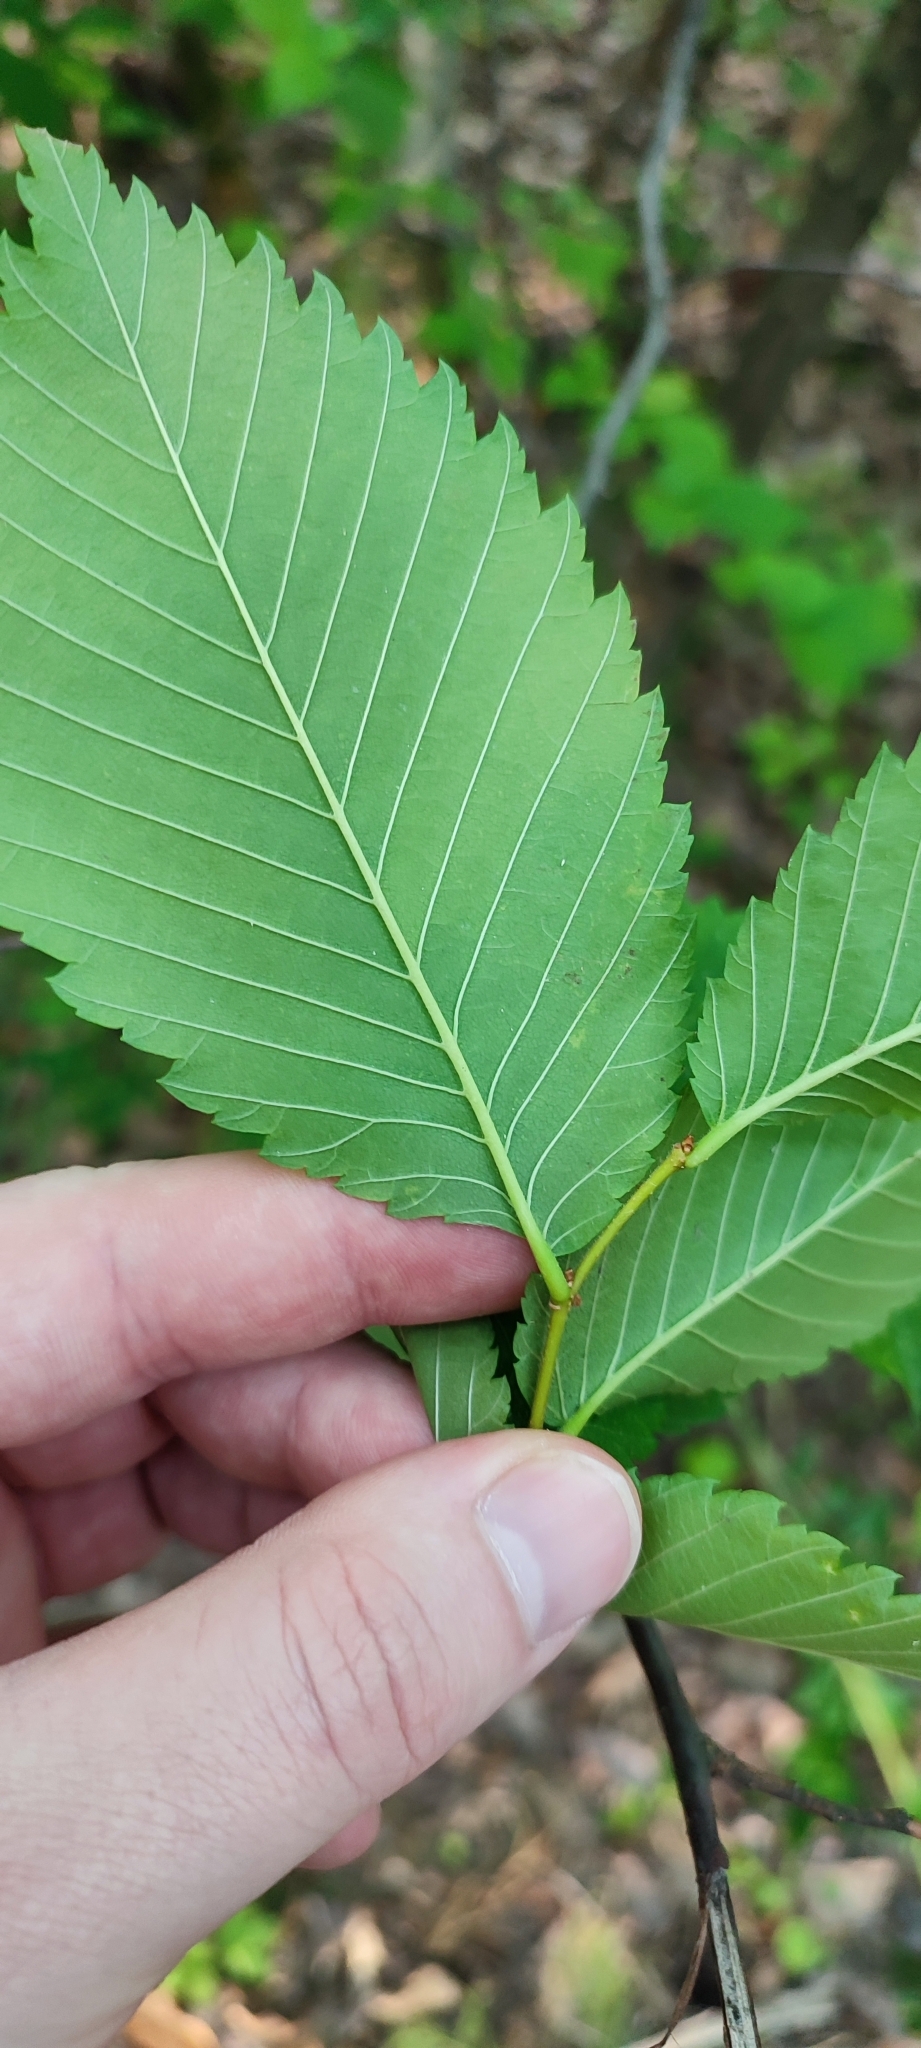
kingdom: Plantae
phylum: Tracheophyta
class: Magnoliopsida
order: Rosales
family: Ulmaceae
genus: Ulmus
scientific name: Ulmus laevis
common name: European white-elm
